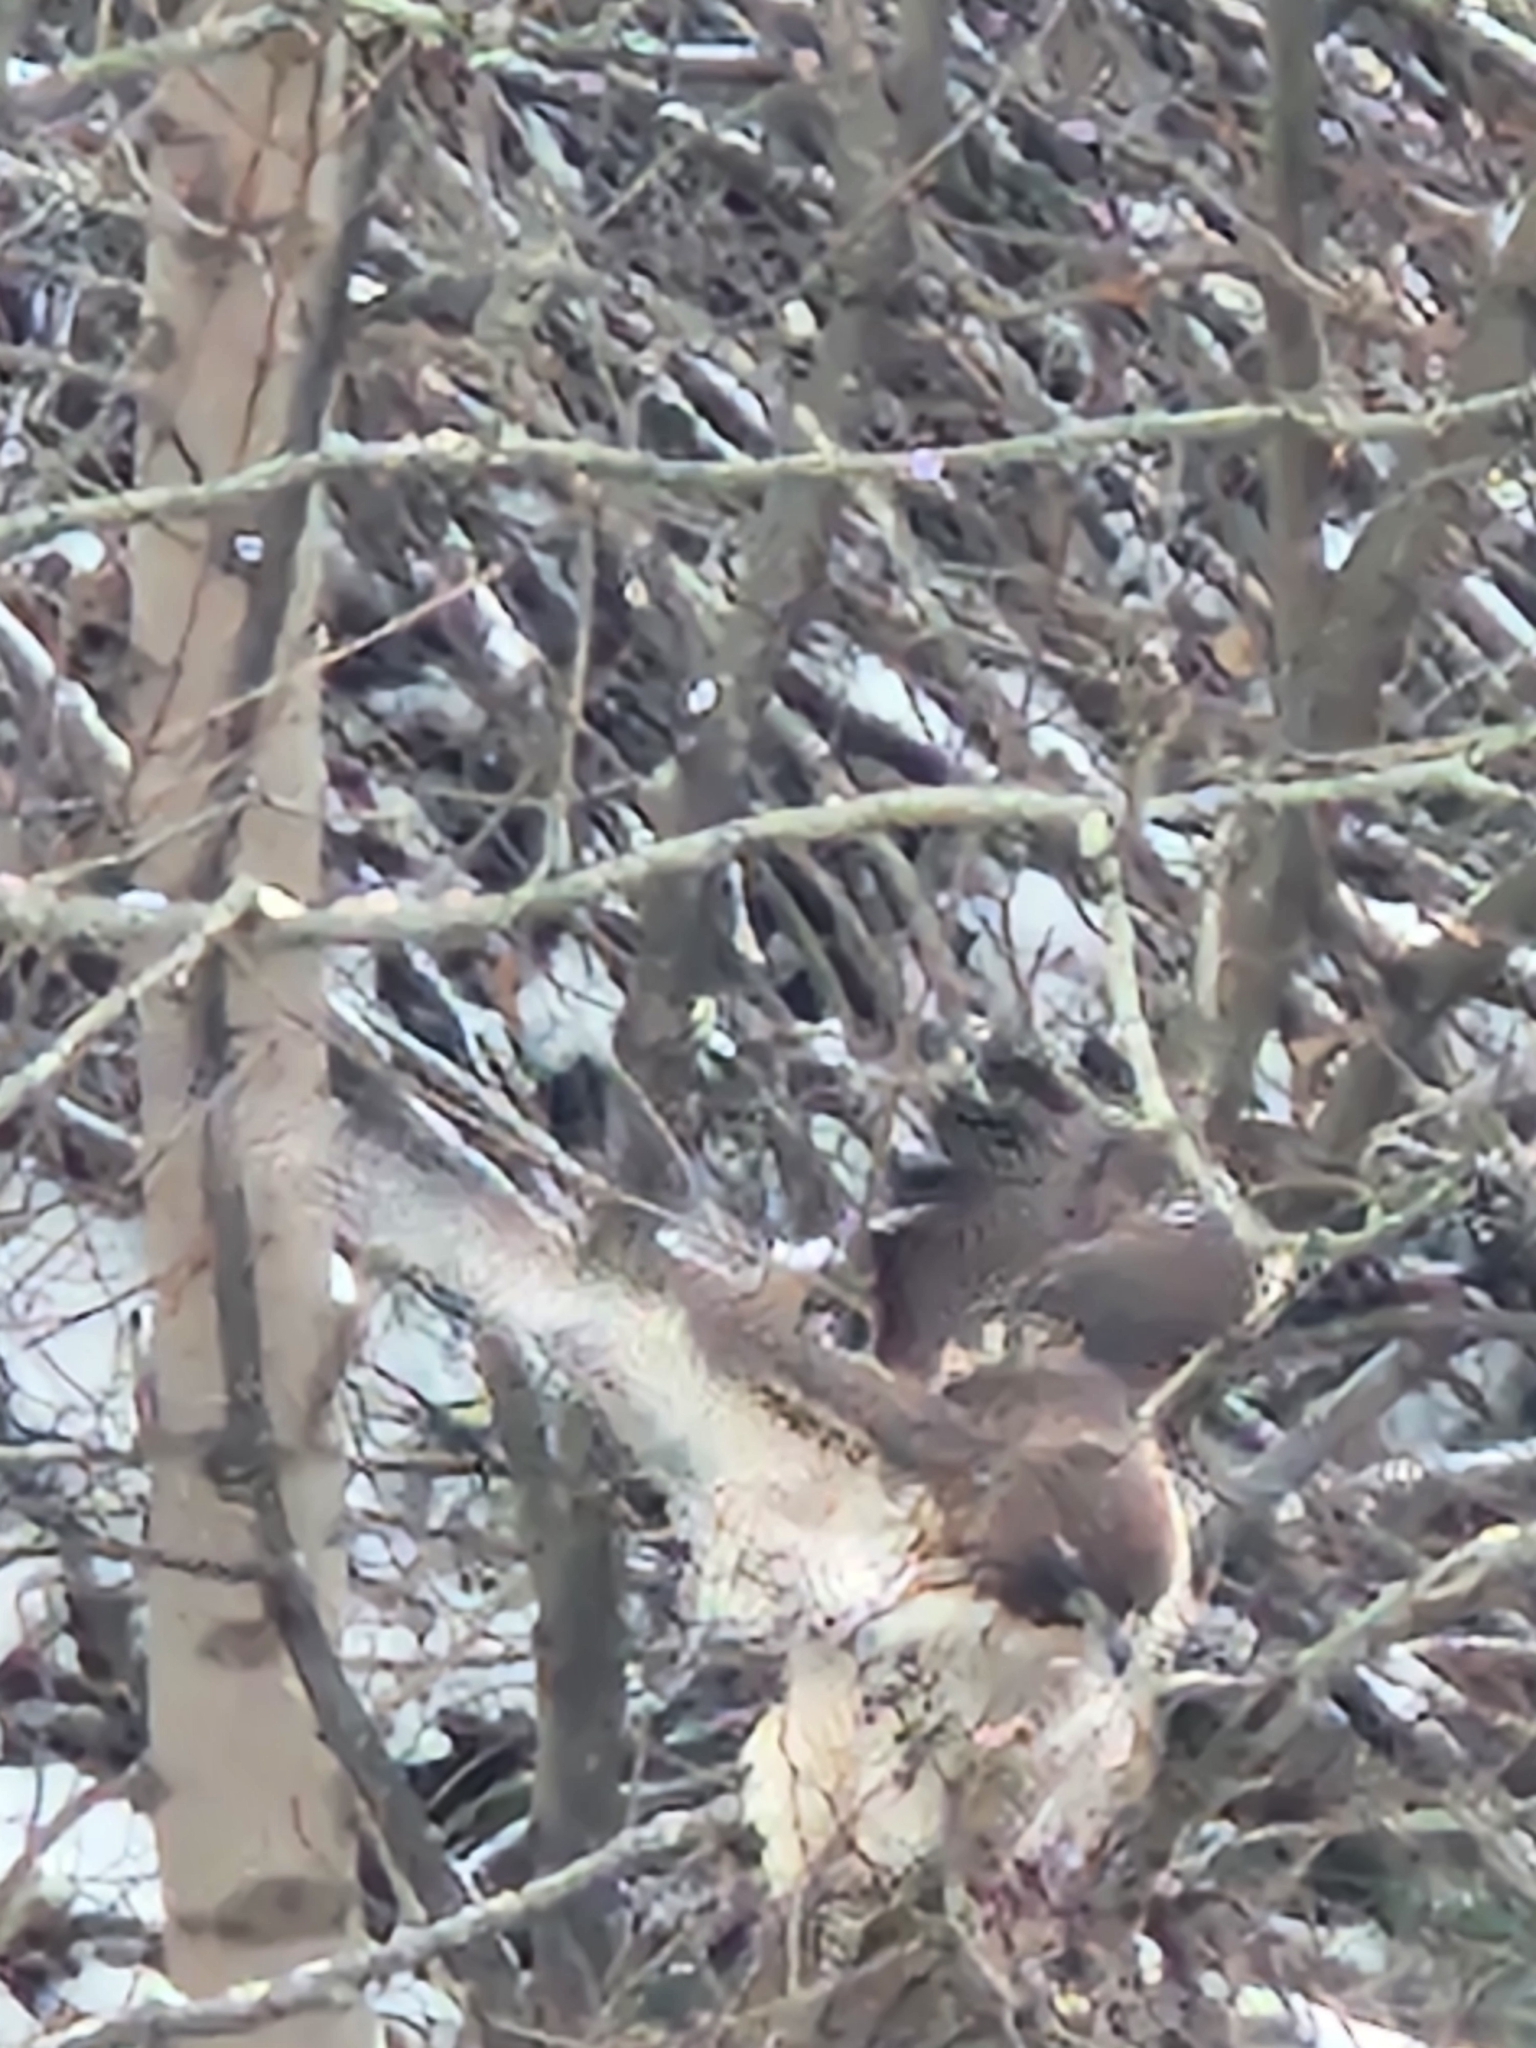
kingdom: Animalia
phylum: Chordata
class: Aves
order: Accipitriformes
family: Accipitridae
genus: Buteo
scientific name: Buteo jamaicensis
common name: Red-tailed hawk
